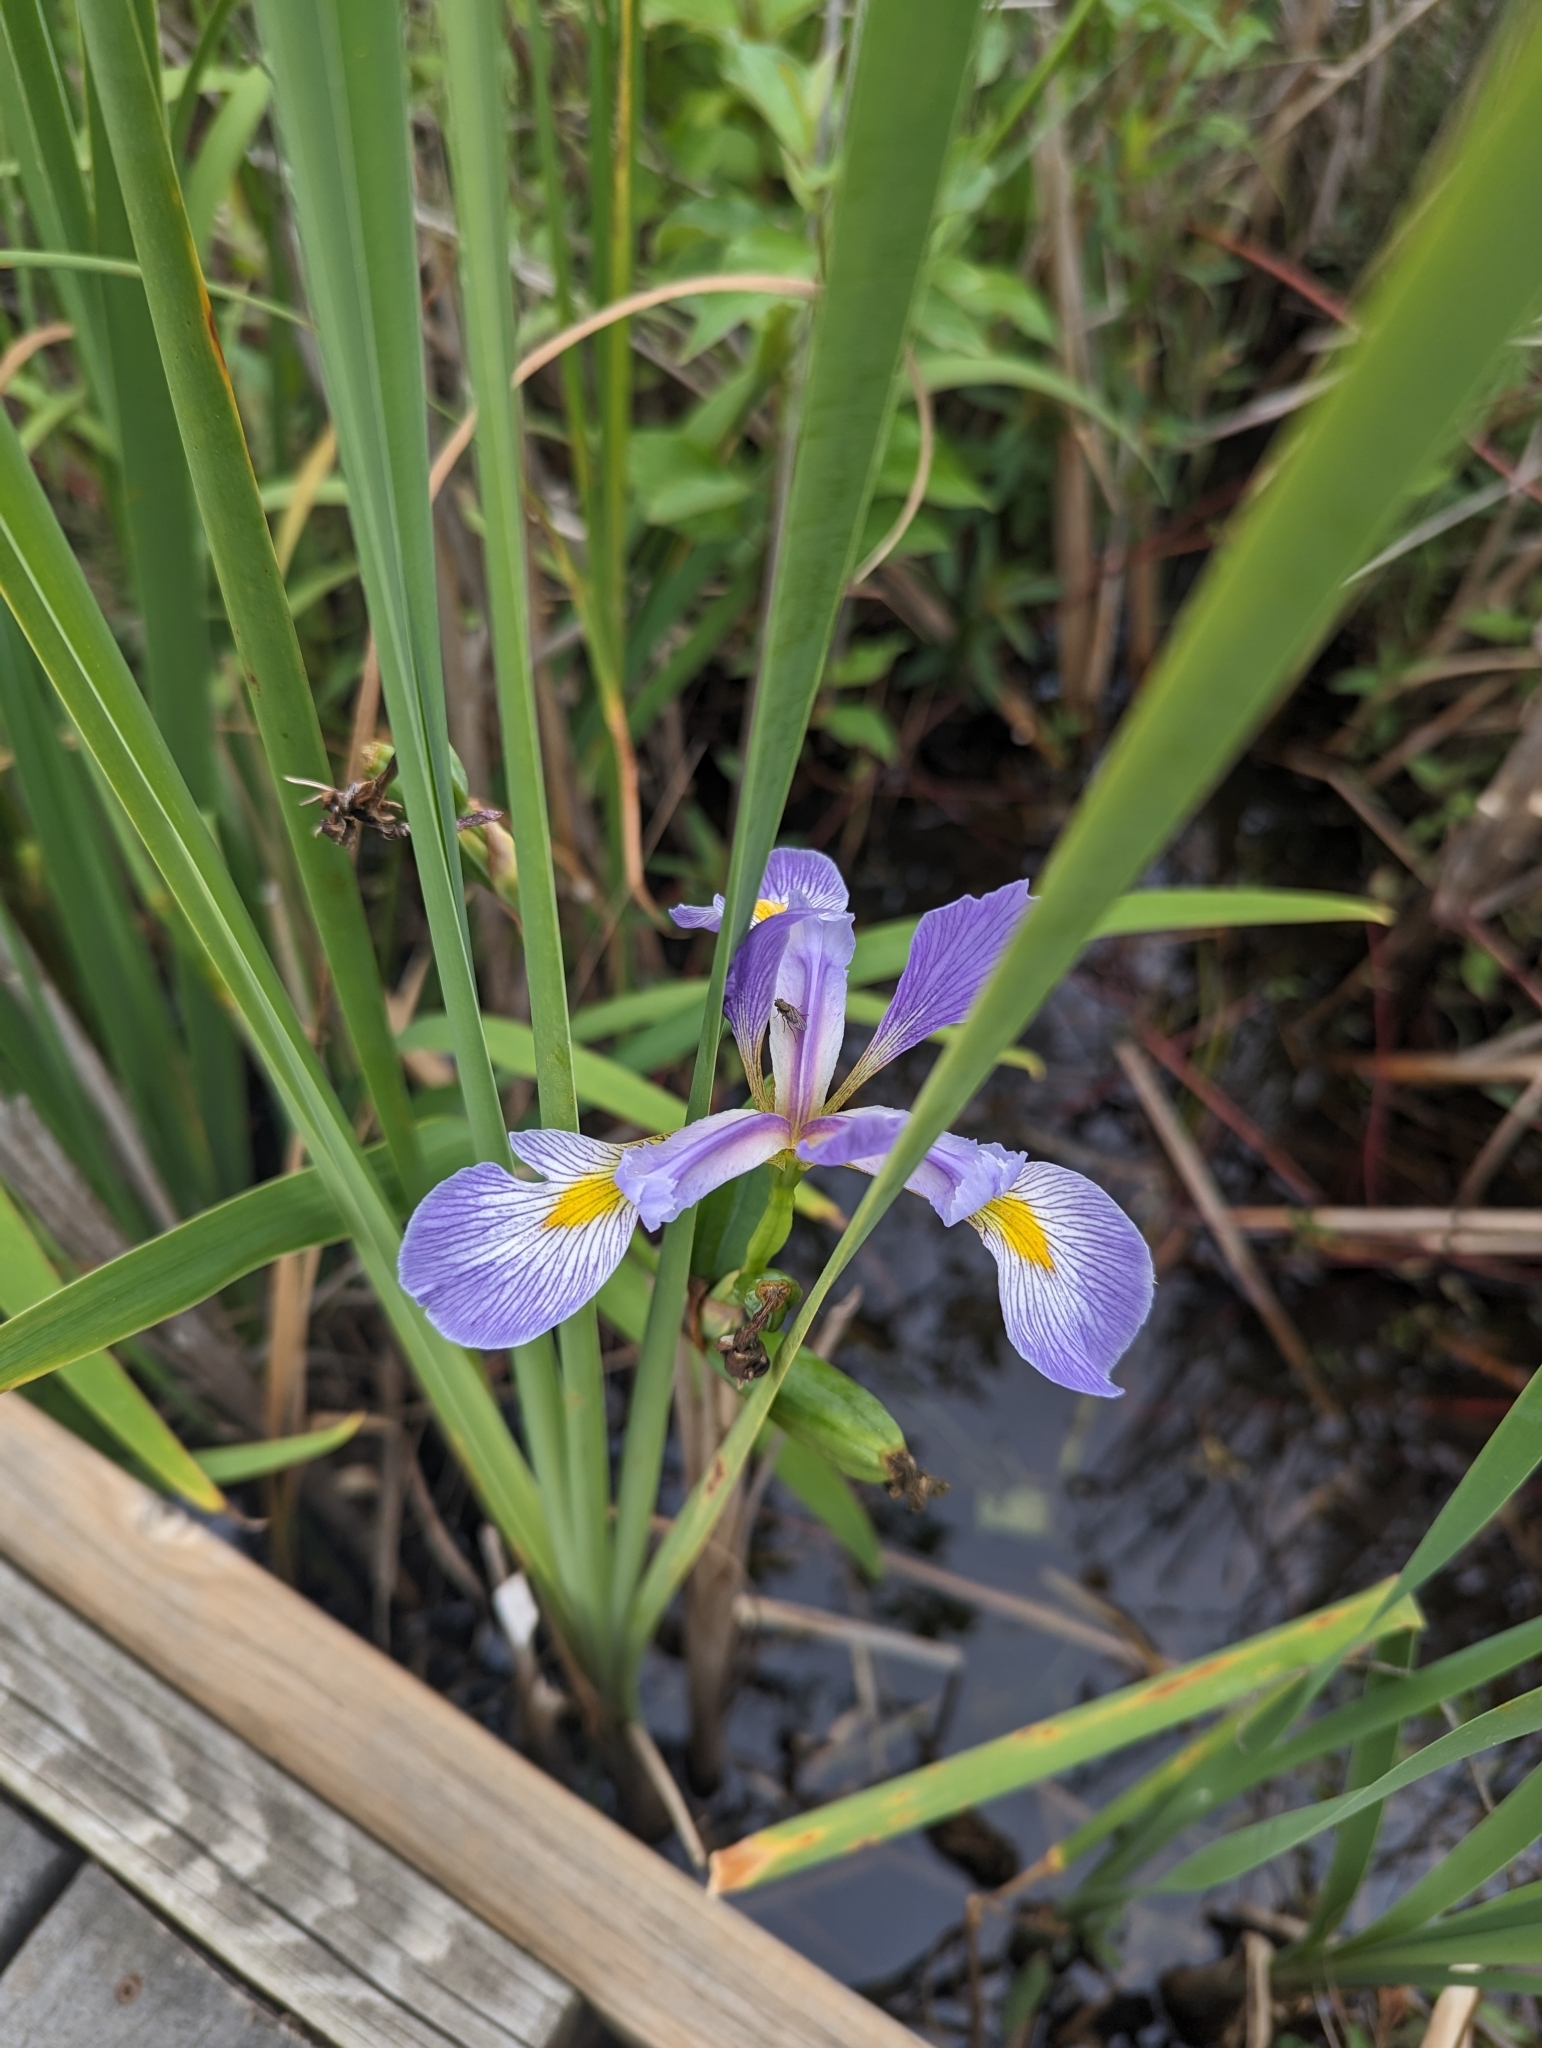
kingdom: Plantae
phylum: Tracheophyta
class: Liliopsida
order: Asparagales
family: Iridaceae
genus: Iris
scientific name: Iris virginica
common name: Southern blue flag
